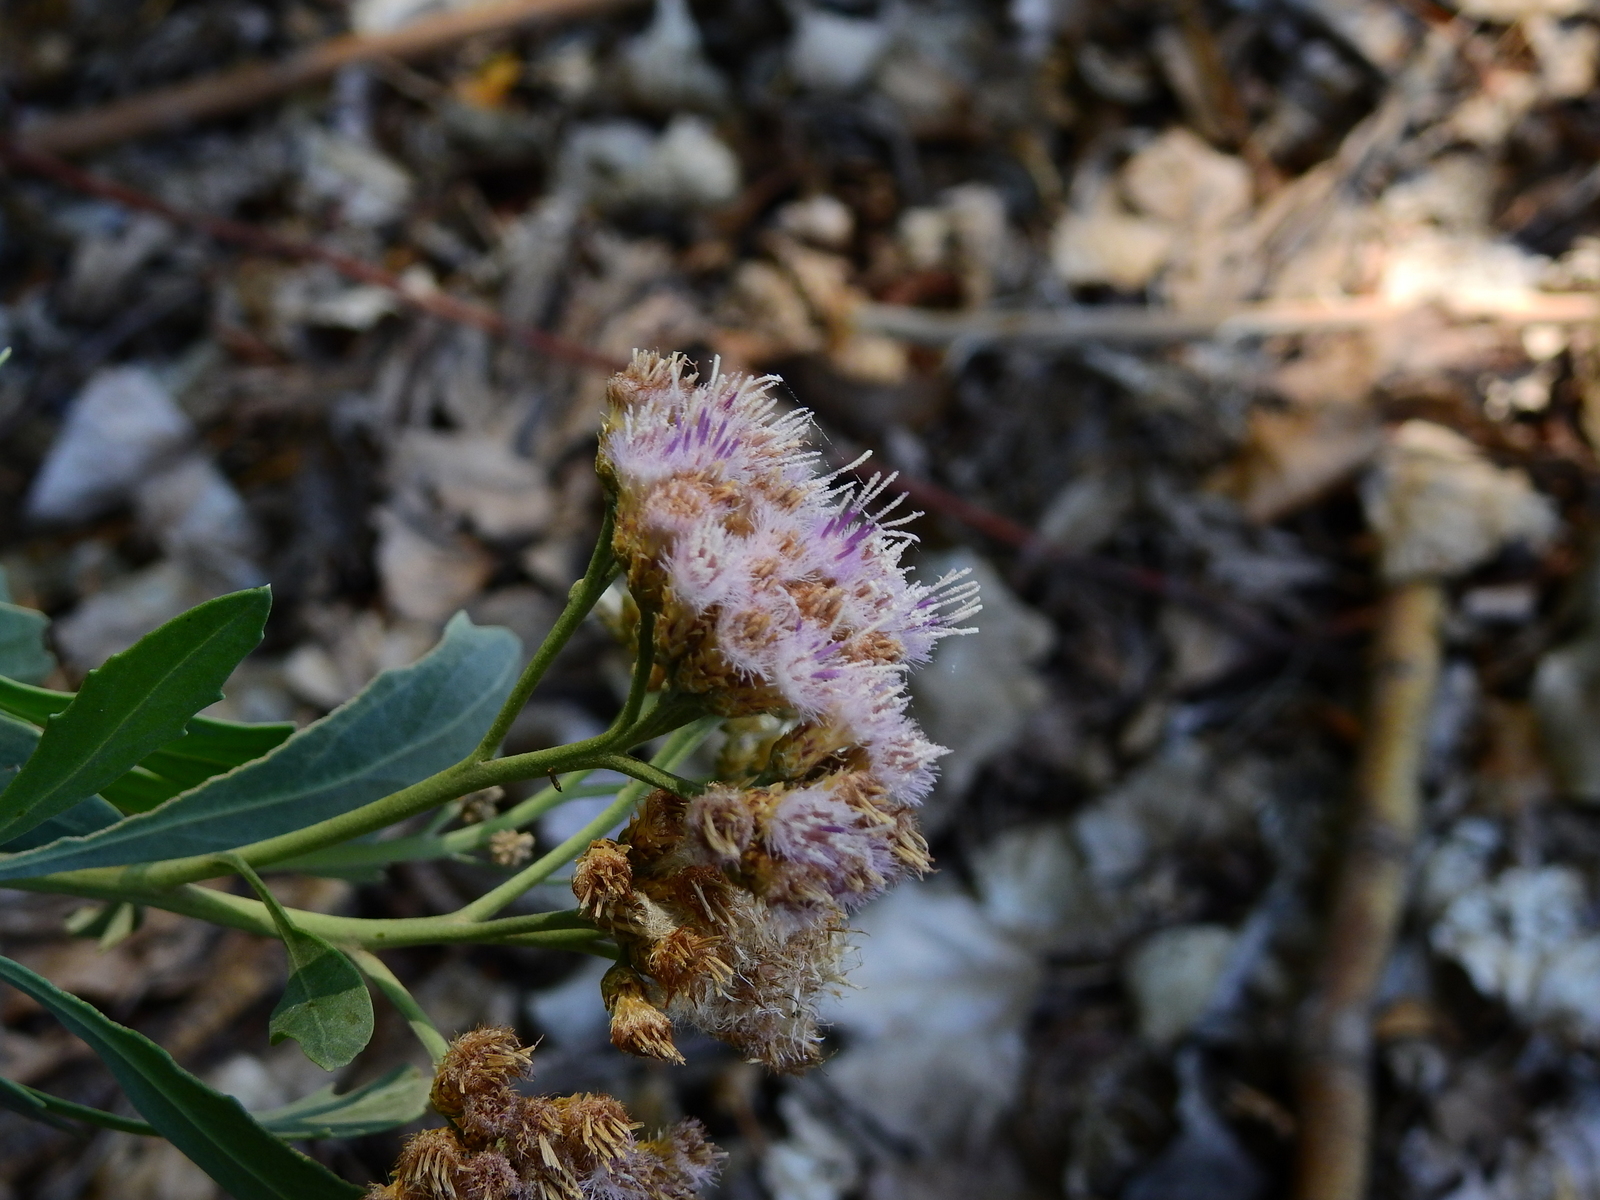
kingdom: Plantae
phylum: Tracheophyta
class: Magnoliopsida
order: Asterales
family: Asteraceae
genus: Tessaria
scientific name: Tessaria absinthioides
